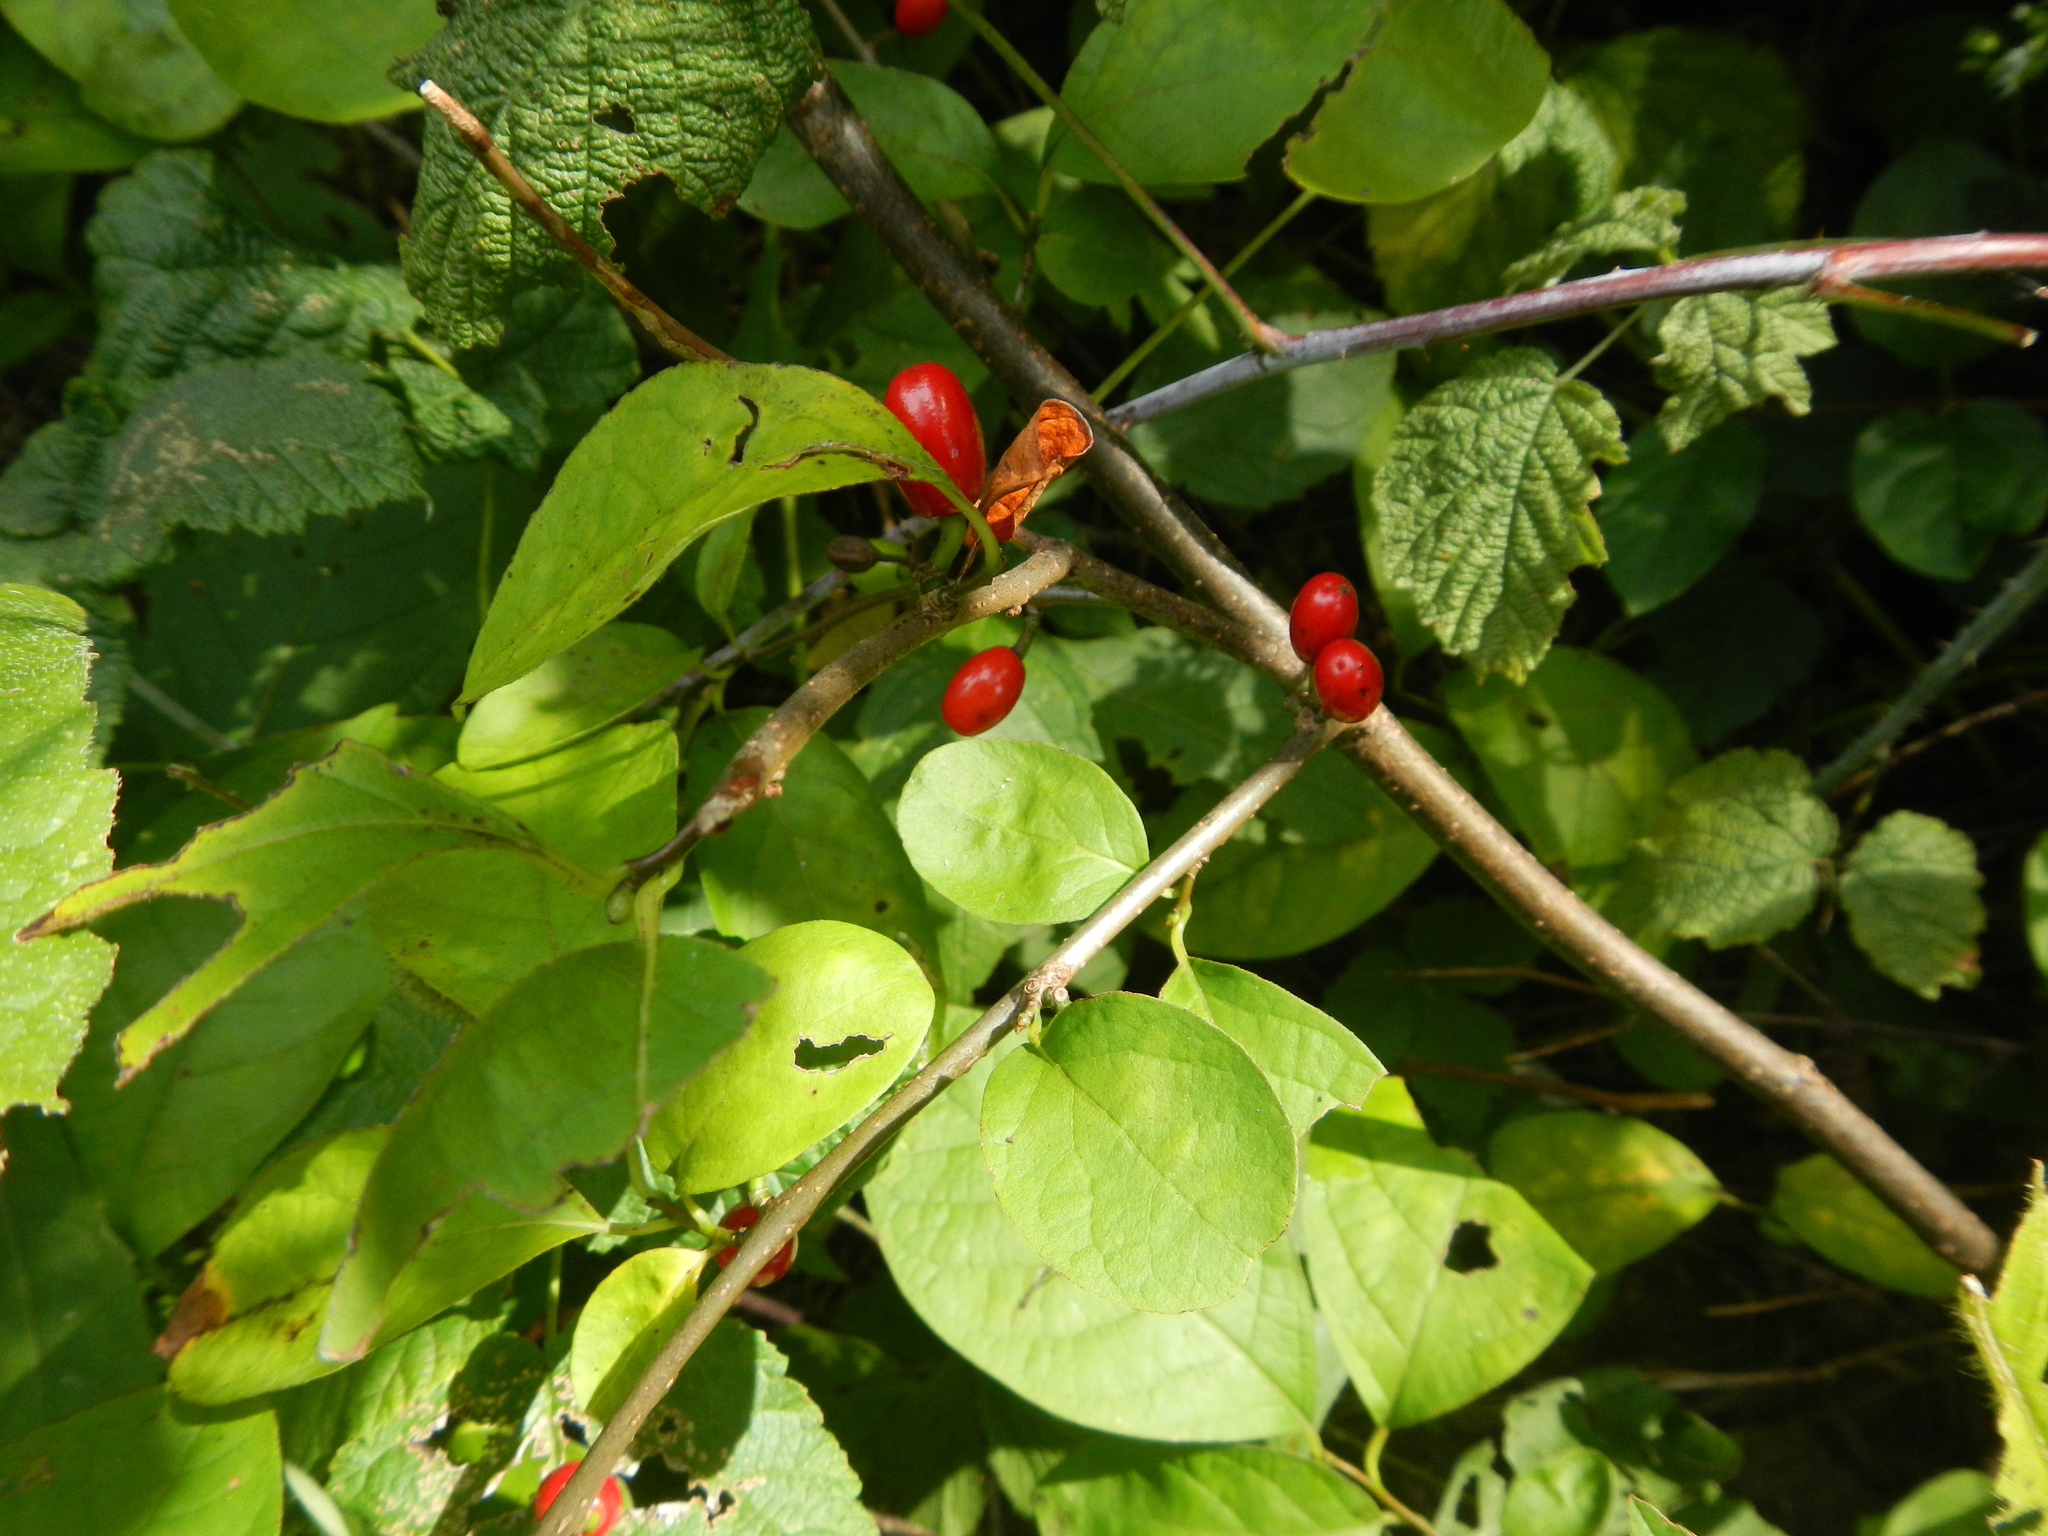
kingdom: Plantae
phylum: Tracheophyta
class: Magnoliopsida
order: Laurales
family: Lauraceae
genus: Lindera
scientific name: Lindera benzoin
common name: Spicebush
